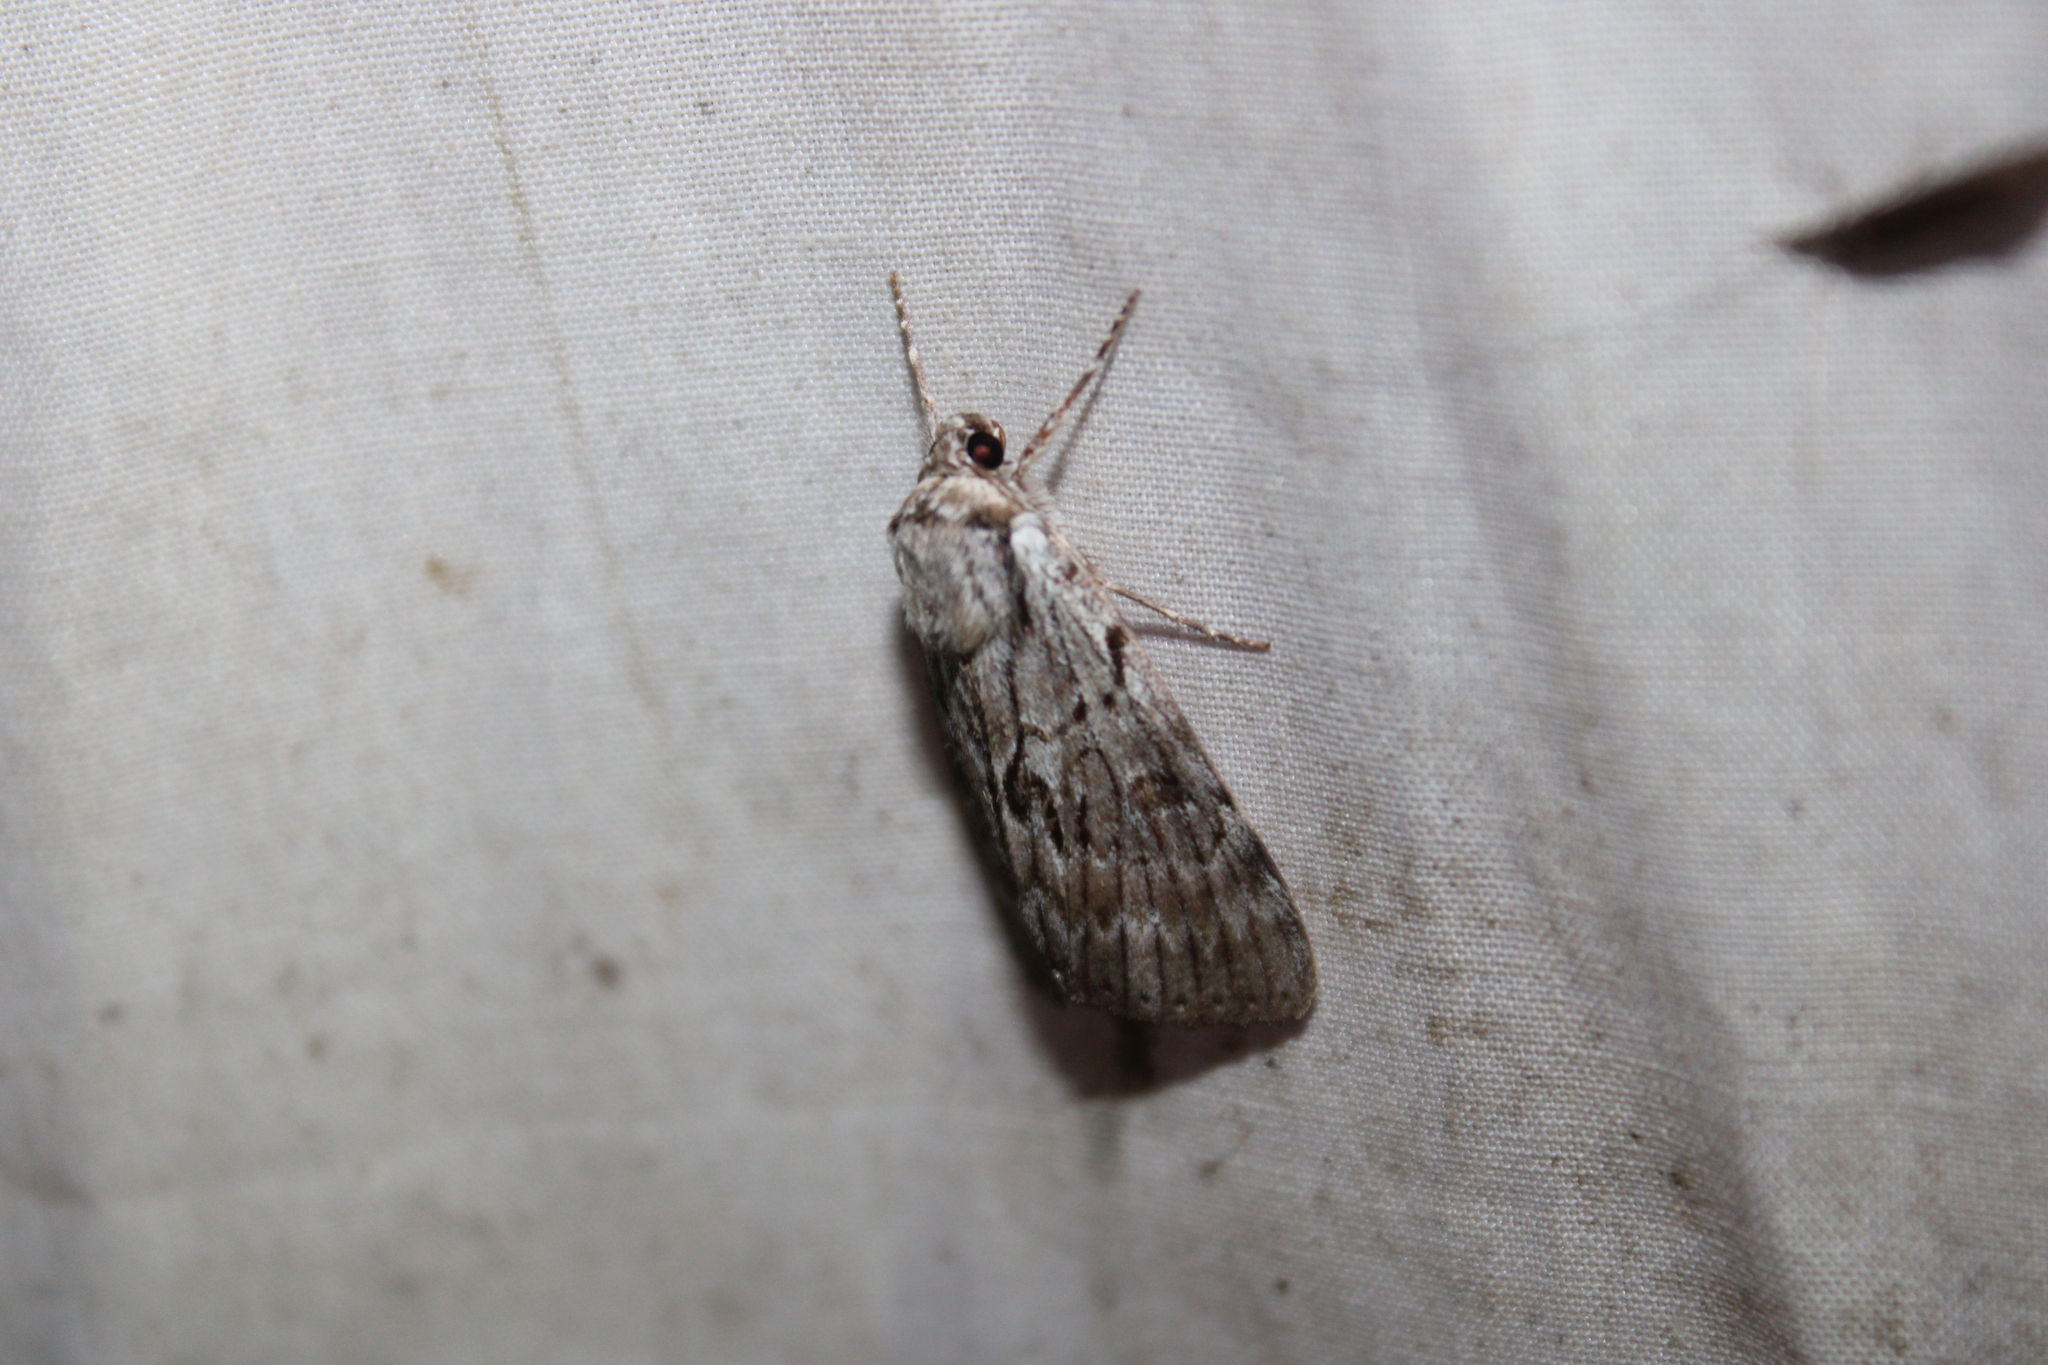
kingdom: Animalia
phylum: Arthropoda
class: Insecta
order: Lepidoptera
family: Erebidae
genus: Catocala
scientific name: Catocala gracilis
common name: Graceful underwing
